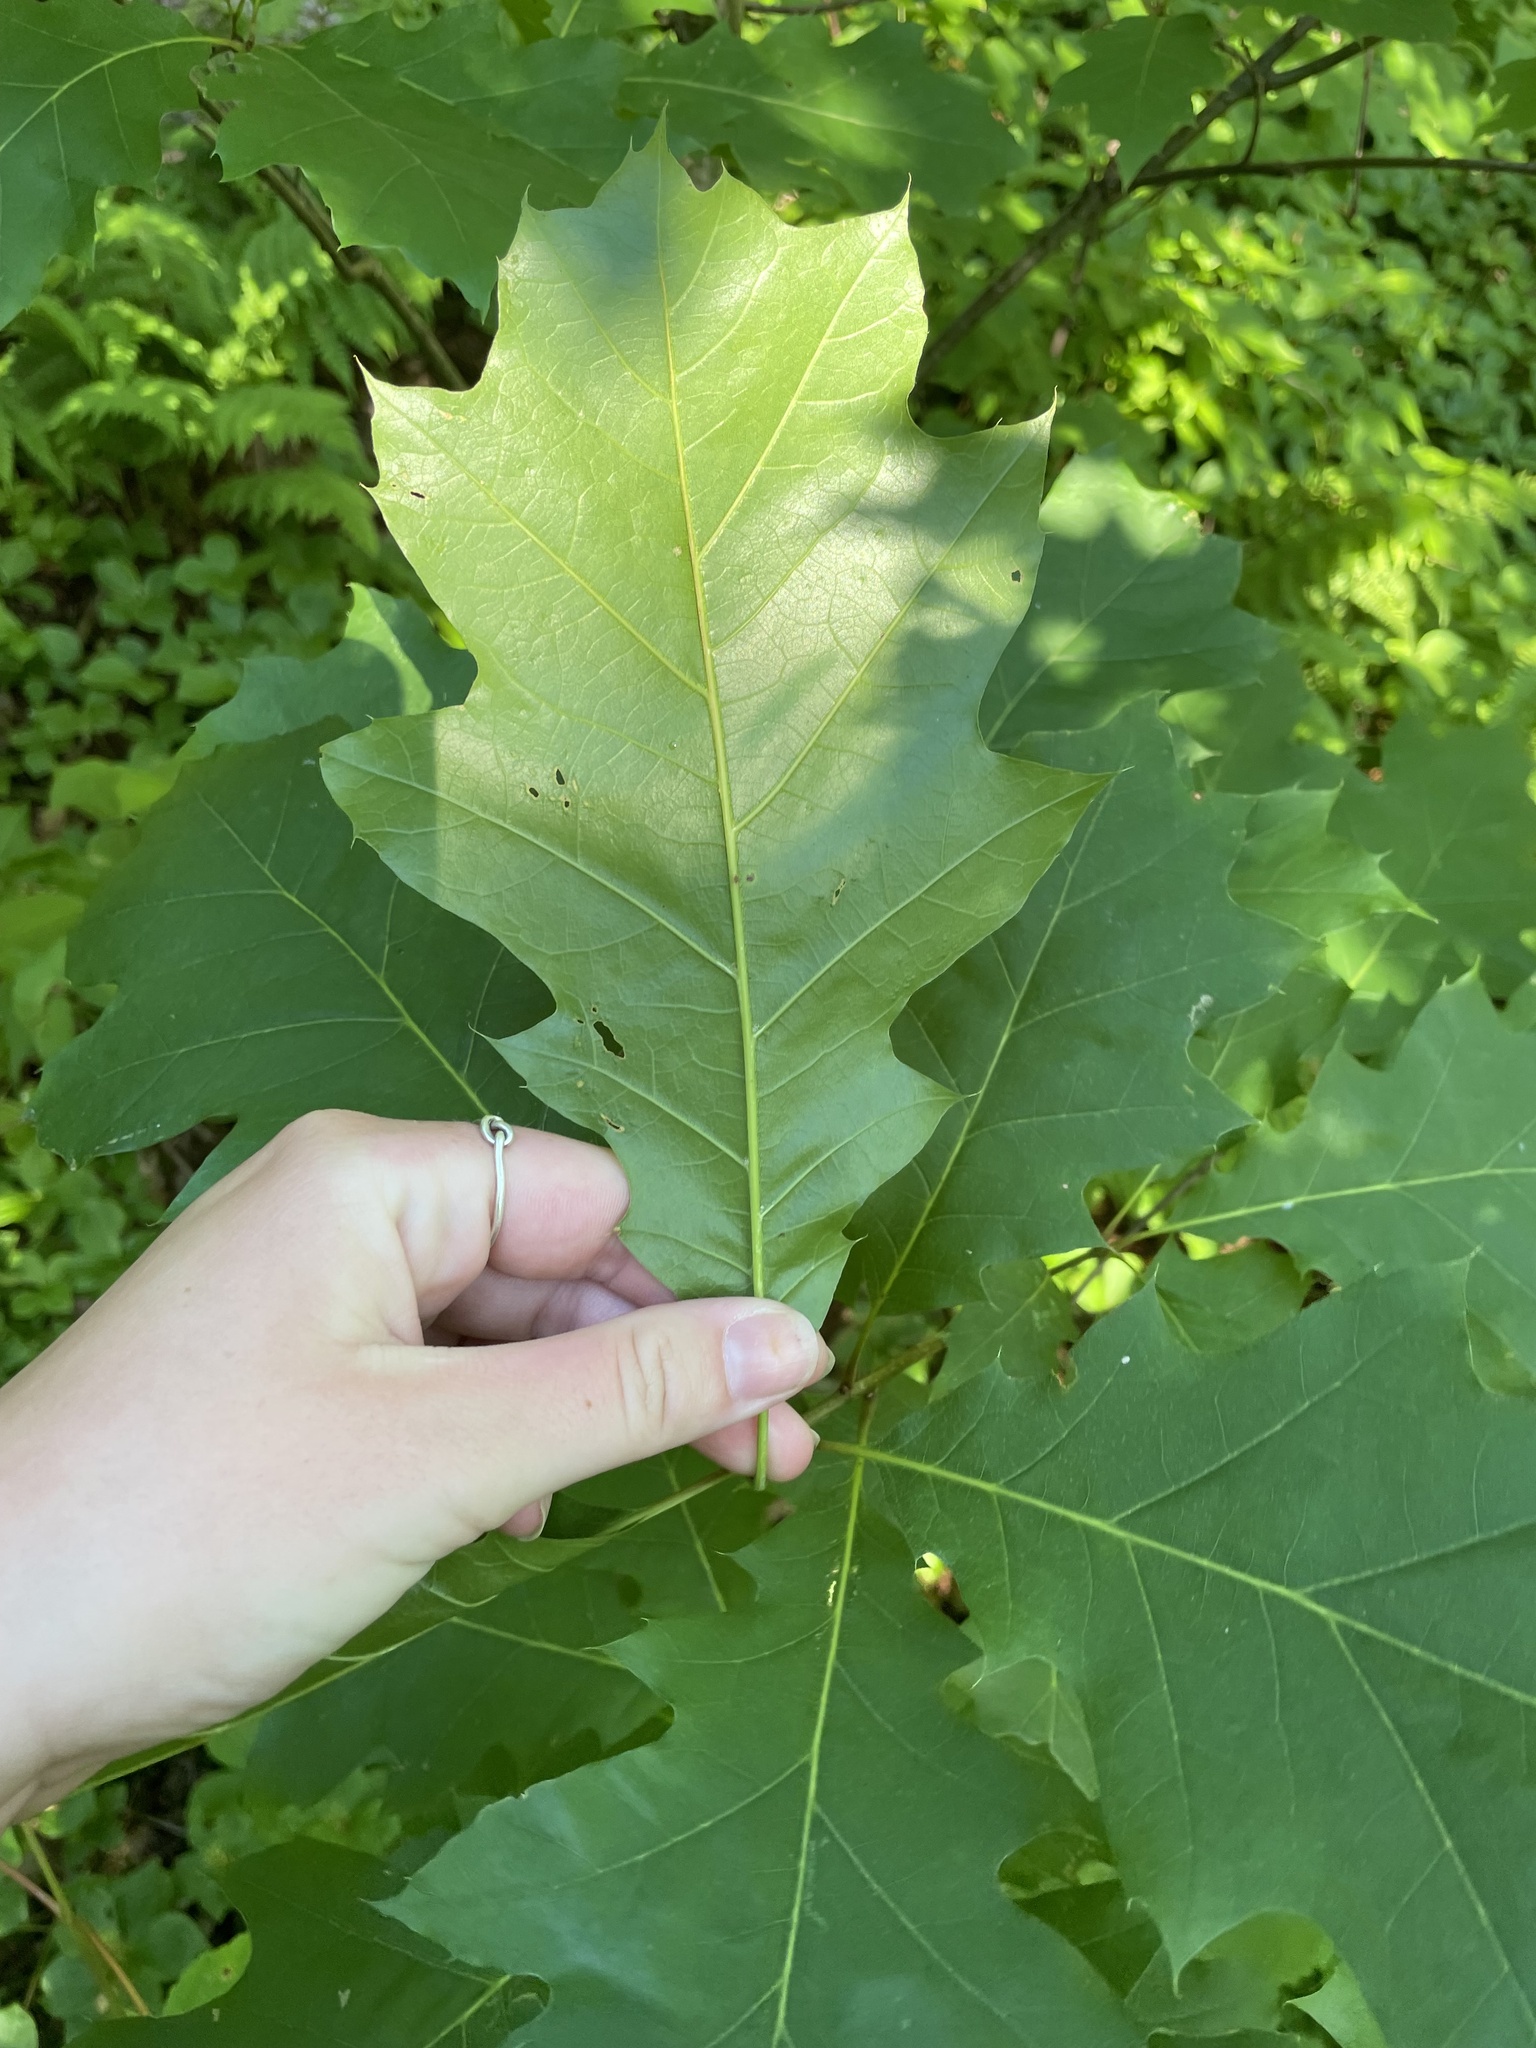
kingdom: Plantae
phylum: Tracheophyta
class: Magnoliopsida
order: Fagales
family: Fagaceae
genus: Quercus
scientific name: Quercus rubra
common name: Red oak
